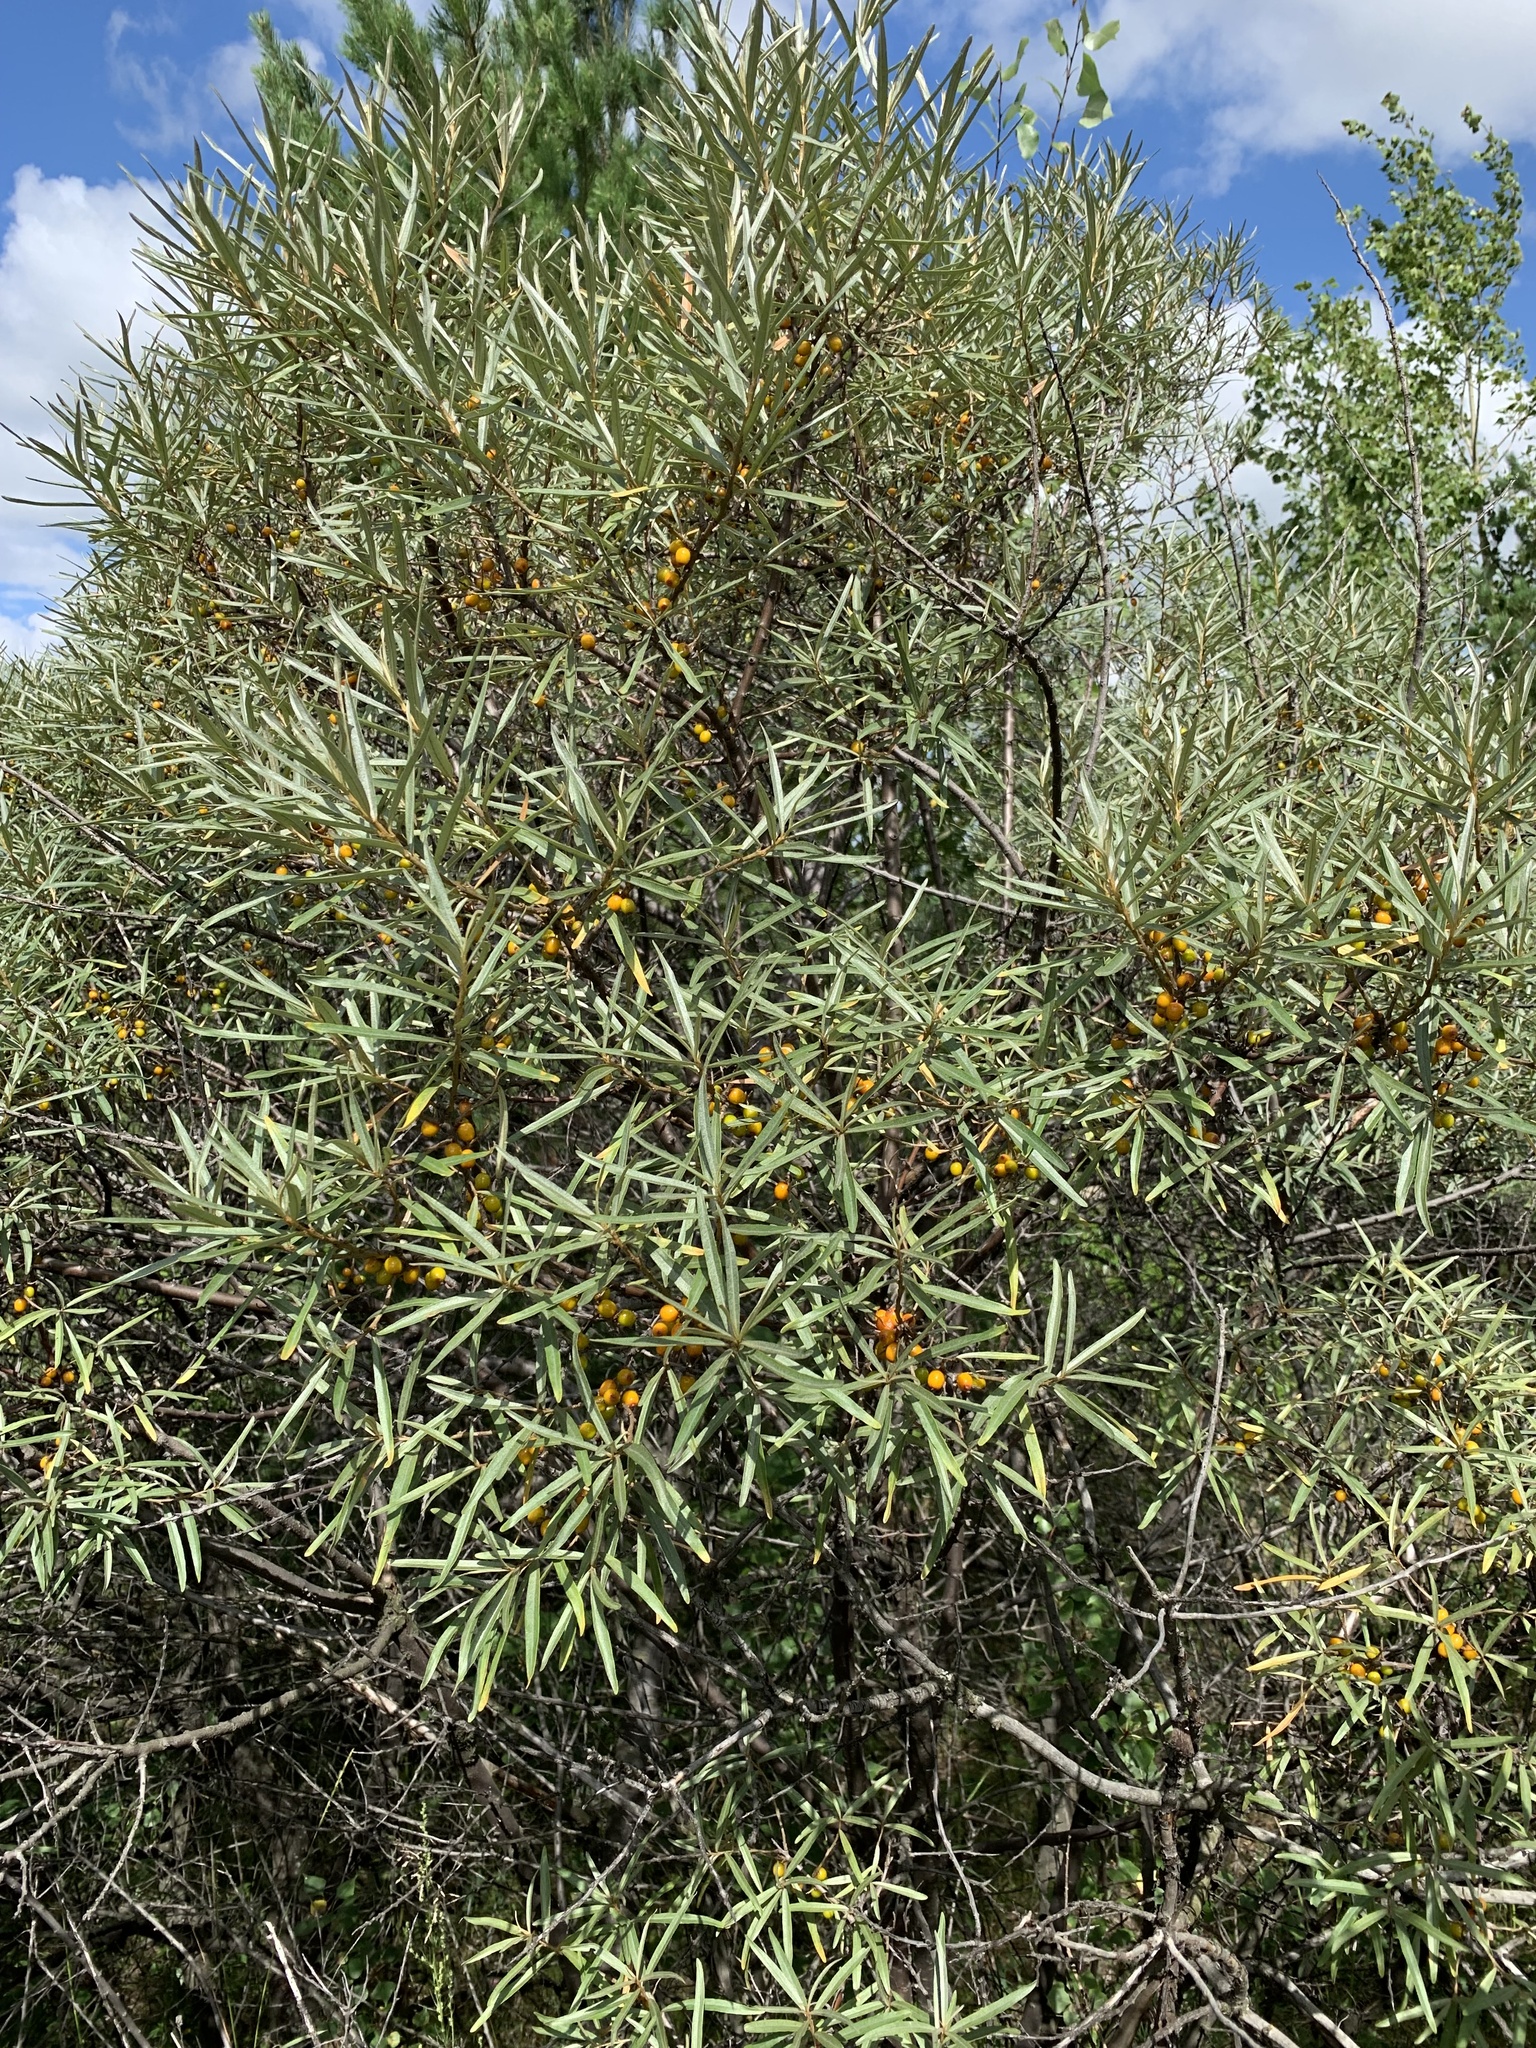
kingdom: Plantae
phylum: Tracheophyta
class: Magnoliopsida
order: Rosales
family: Elaeagnaceae
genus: Hippophae
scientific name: Hippophae rhamnoides
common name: Sea-buckthorn
